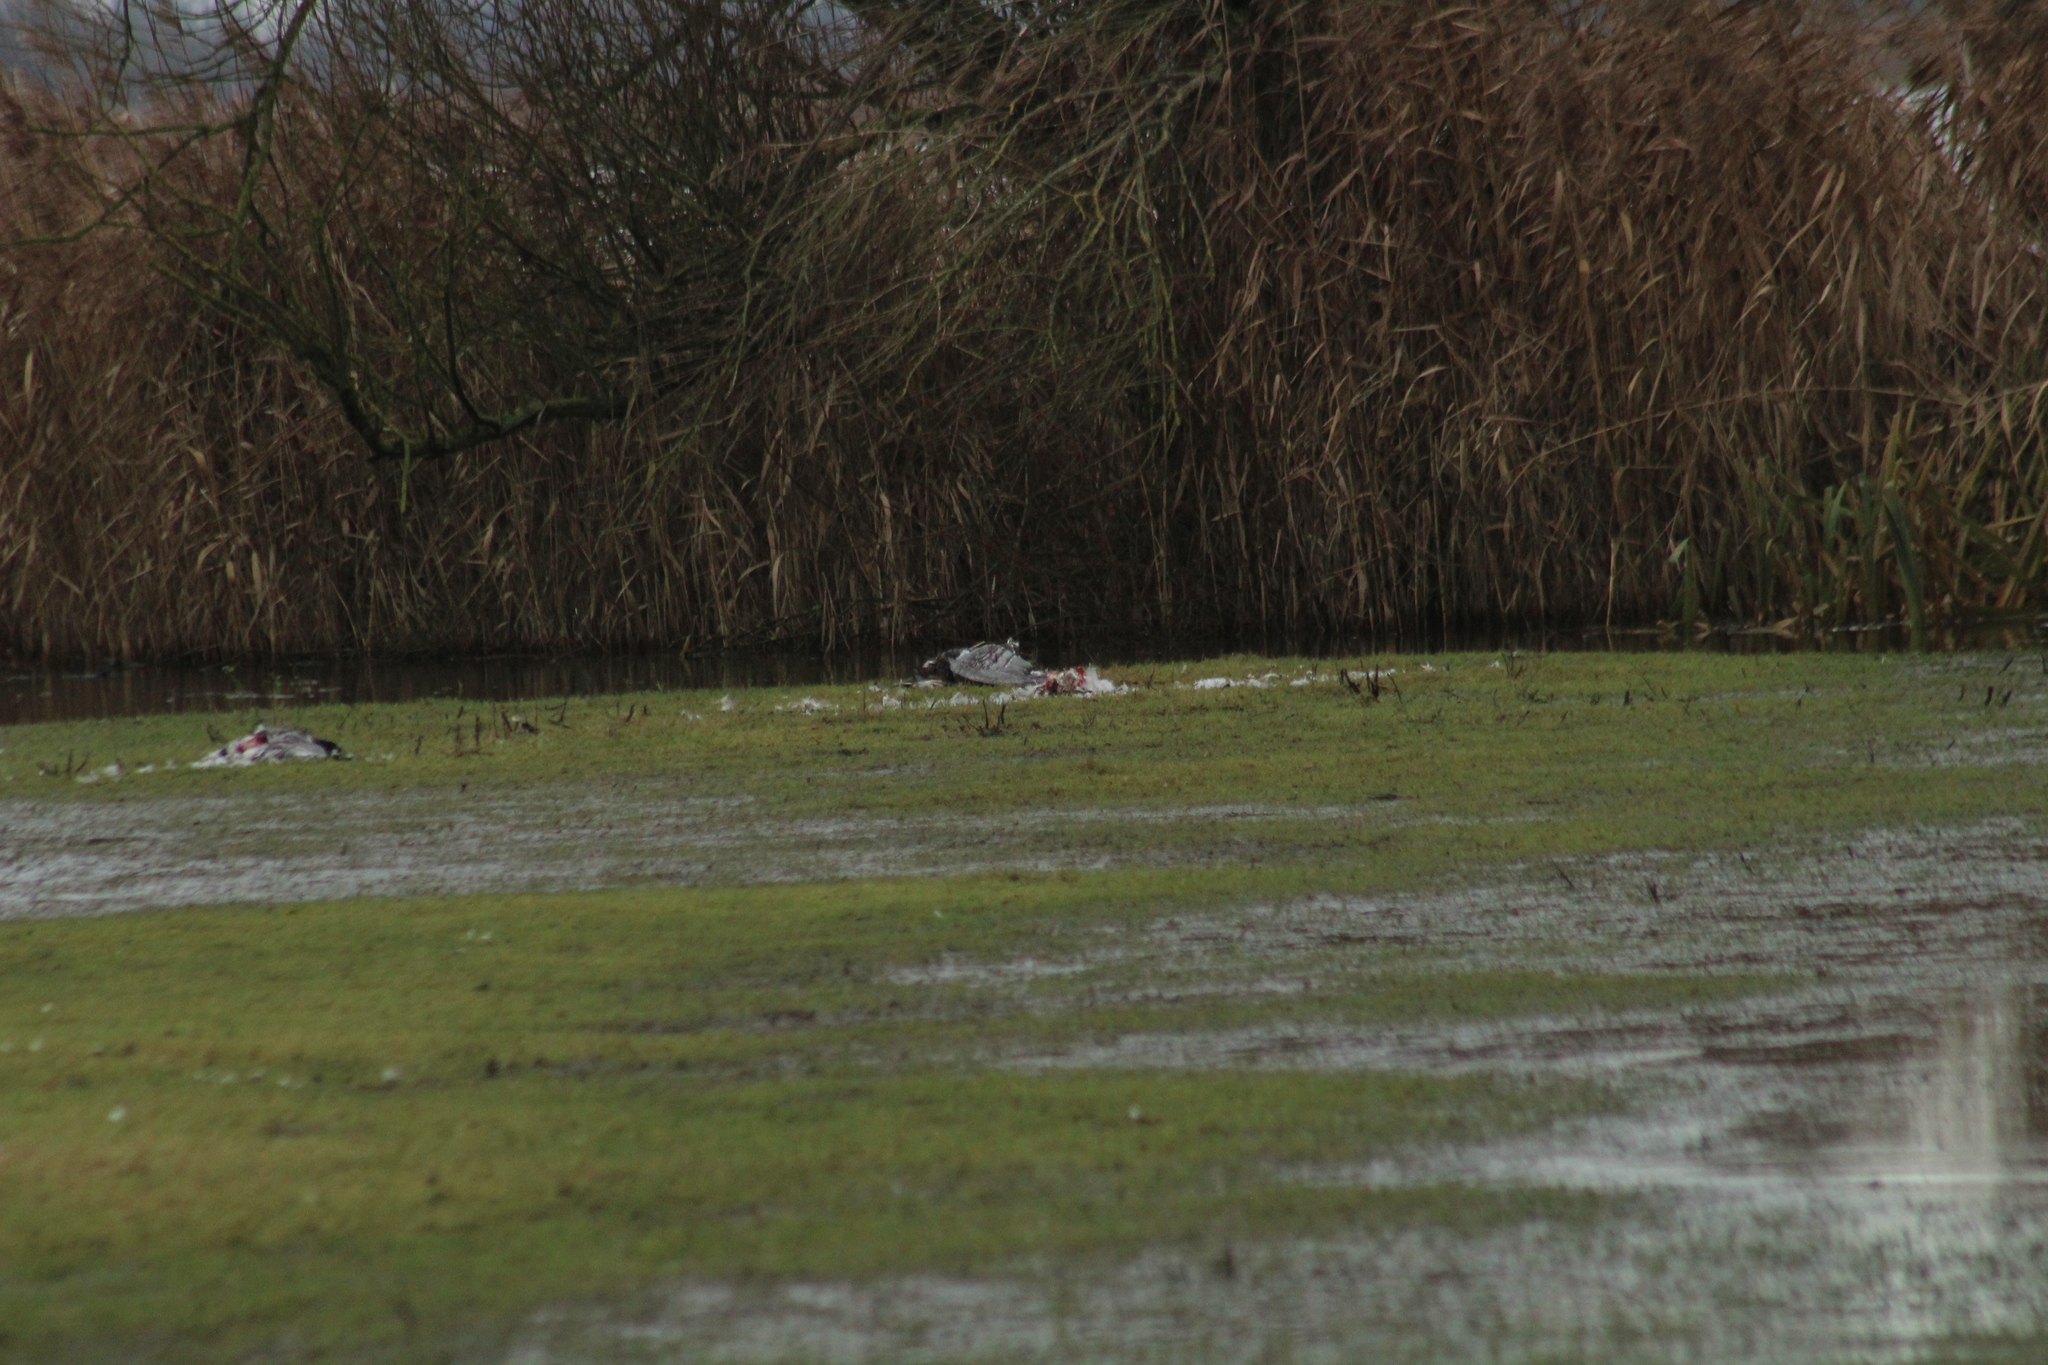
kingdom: Animalia
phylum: Chordata
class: Aves
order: Anseriformes
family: Anatidae
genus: Branta
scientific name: Branta leucopsis
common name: Barnacle goose
